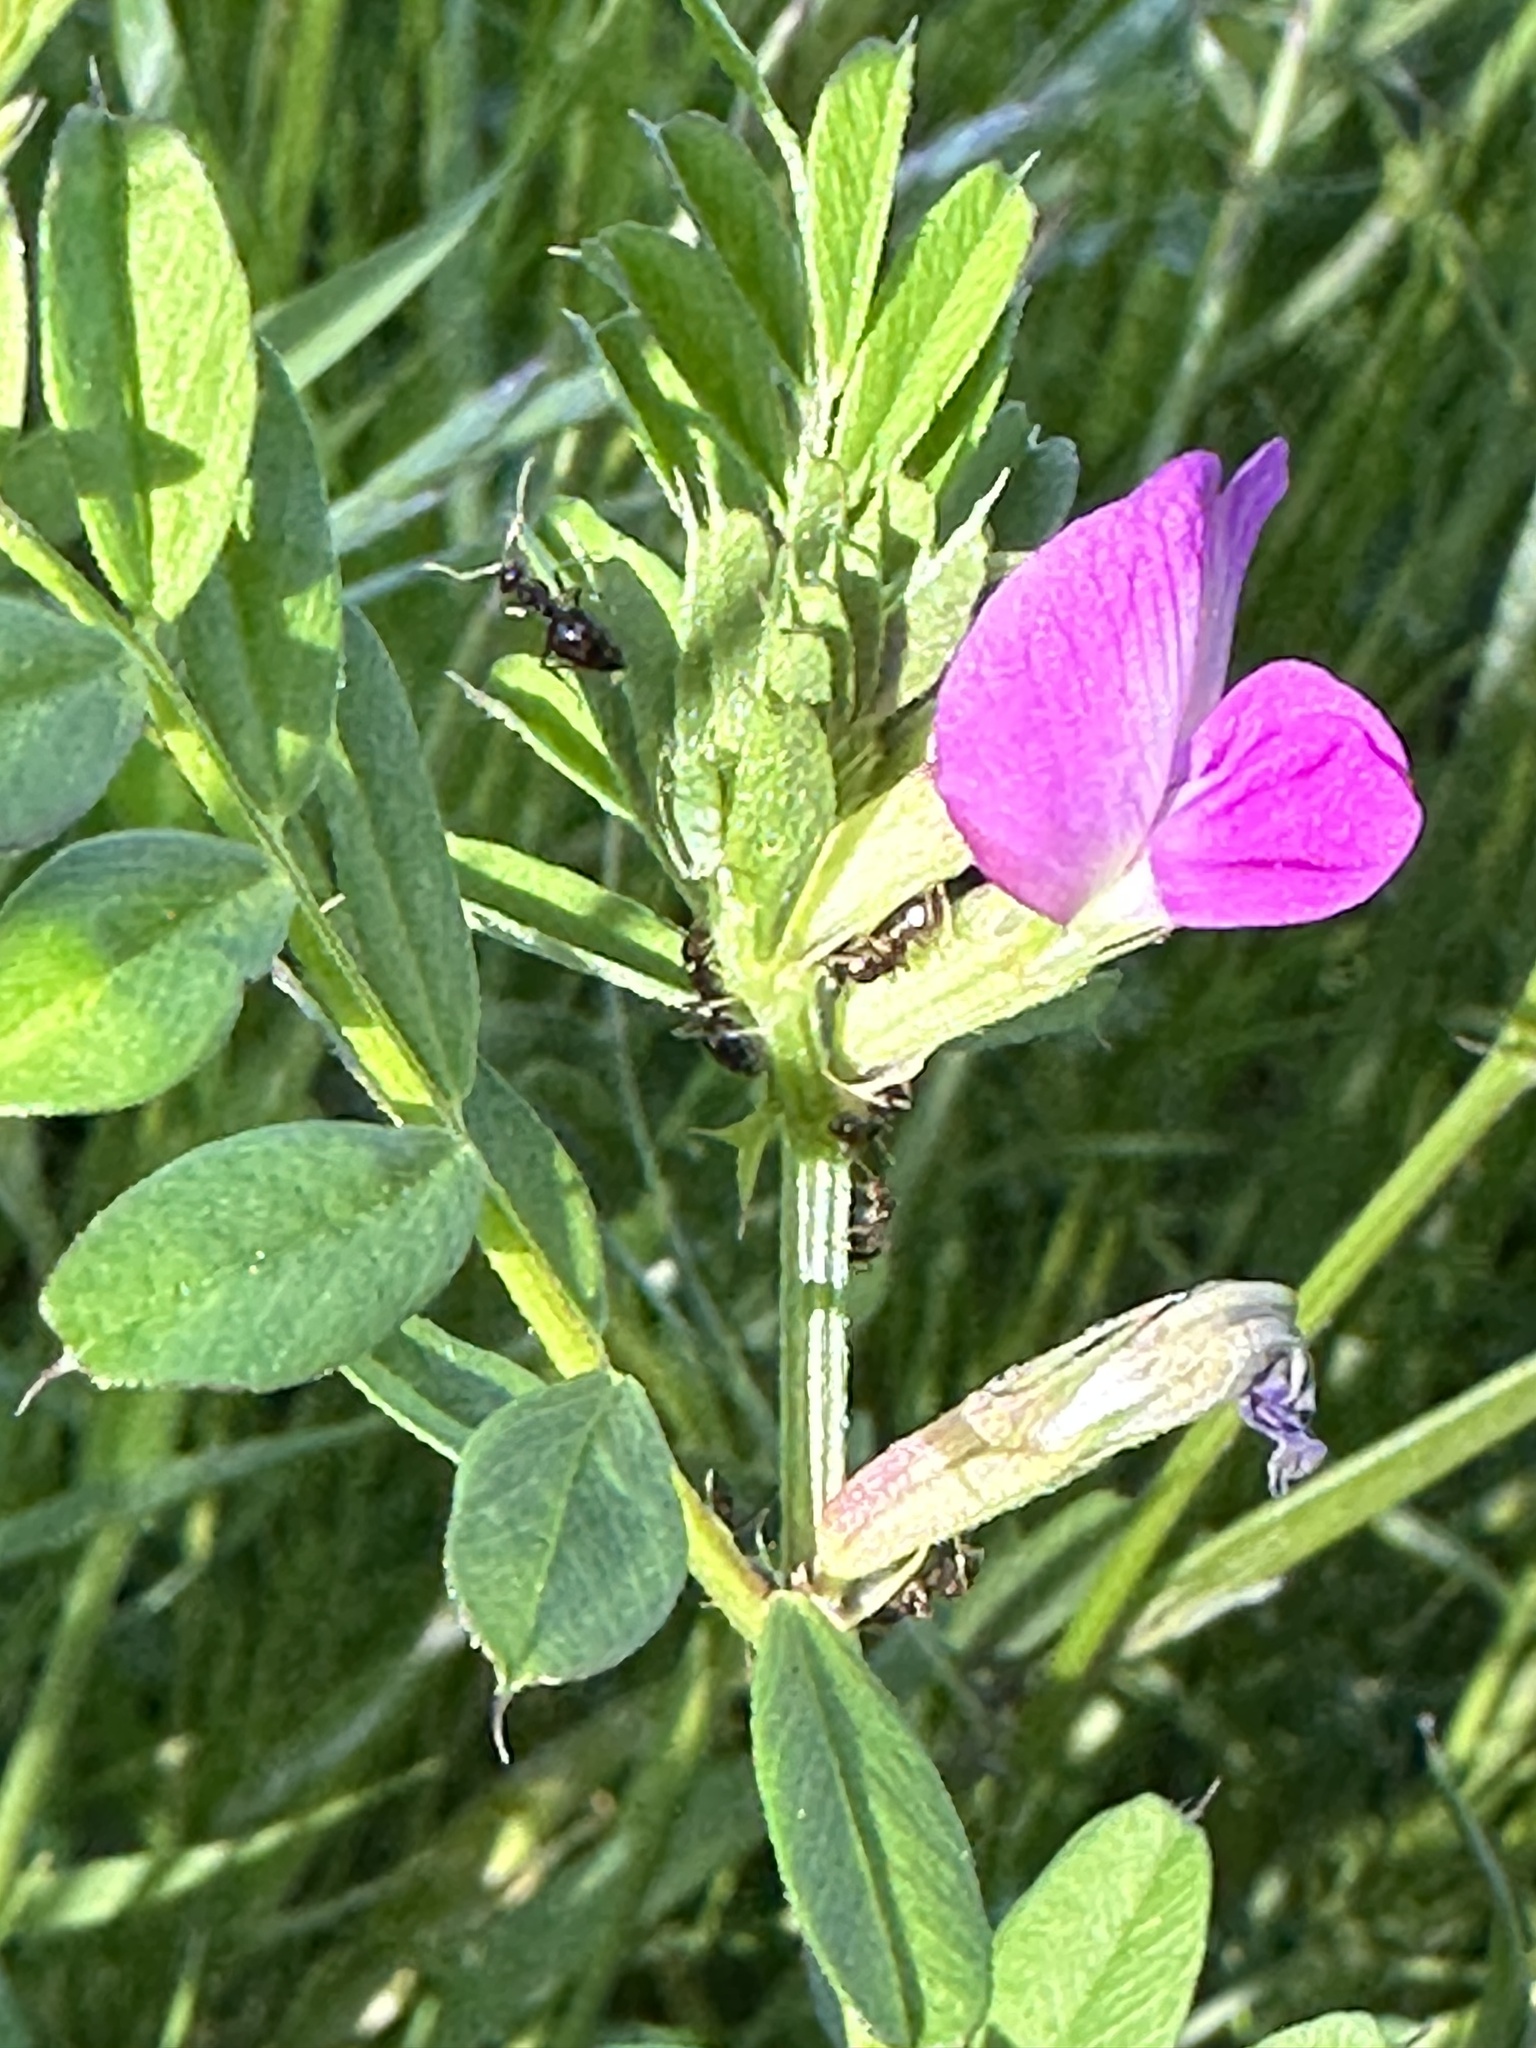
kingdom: Plantae
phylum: Tracheophyta
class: Magnoliopsida
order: Fabales
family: Fabaceae
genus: Vicia
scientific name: Vicia sativa
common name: Garden vetch
